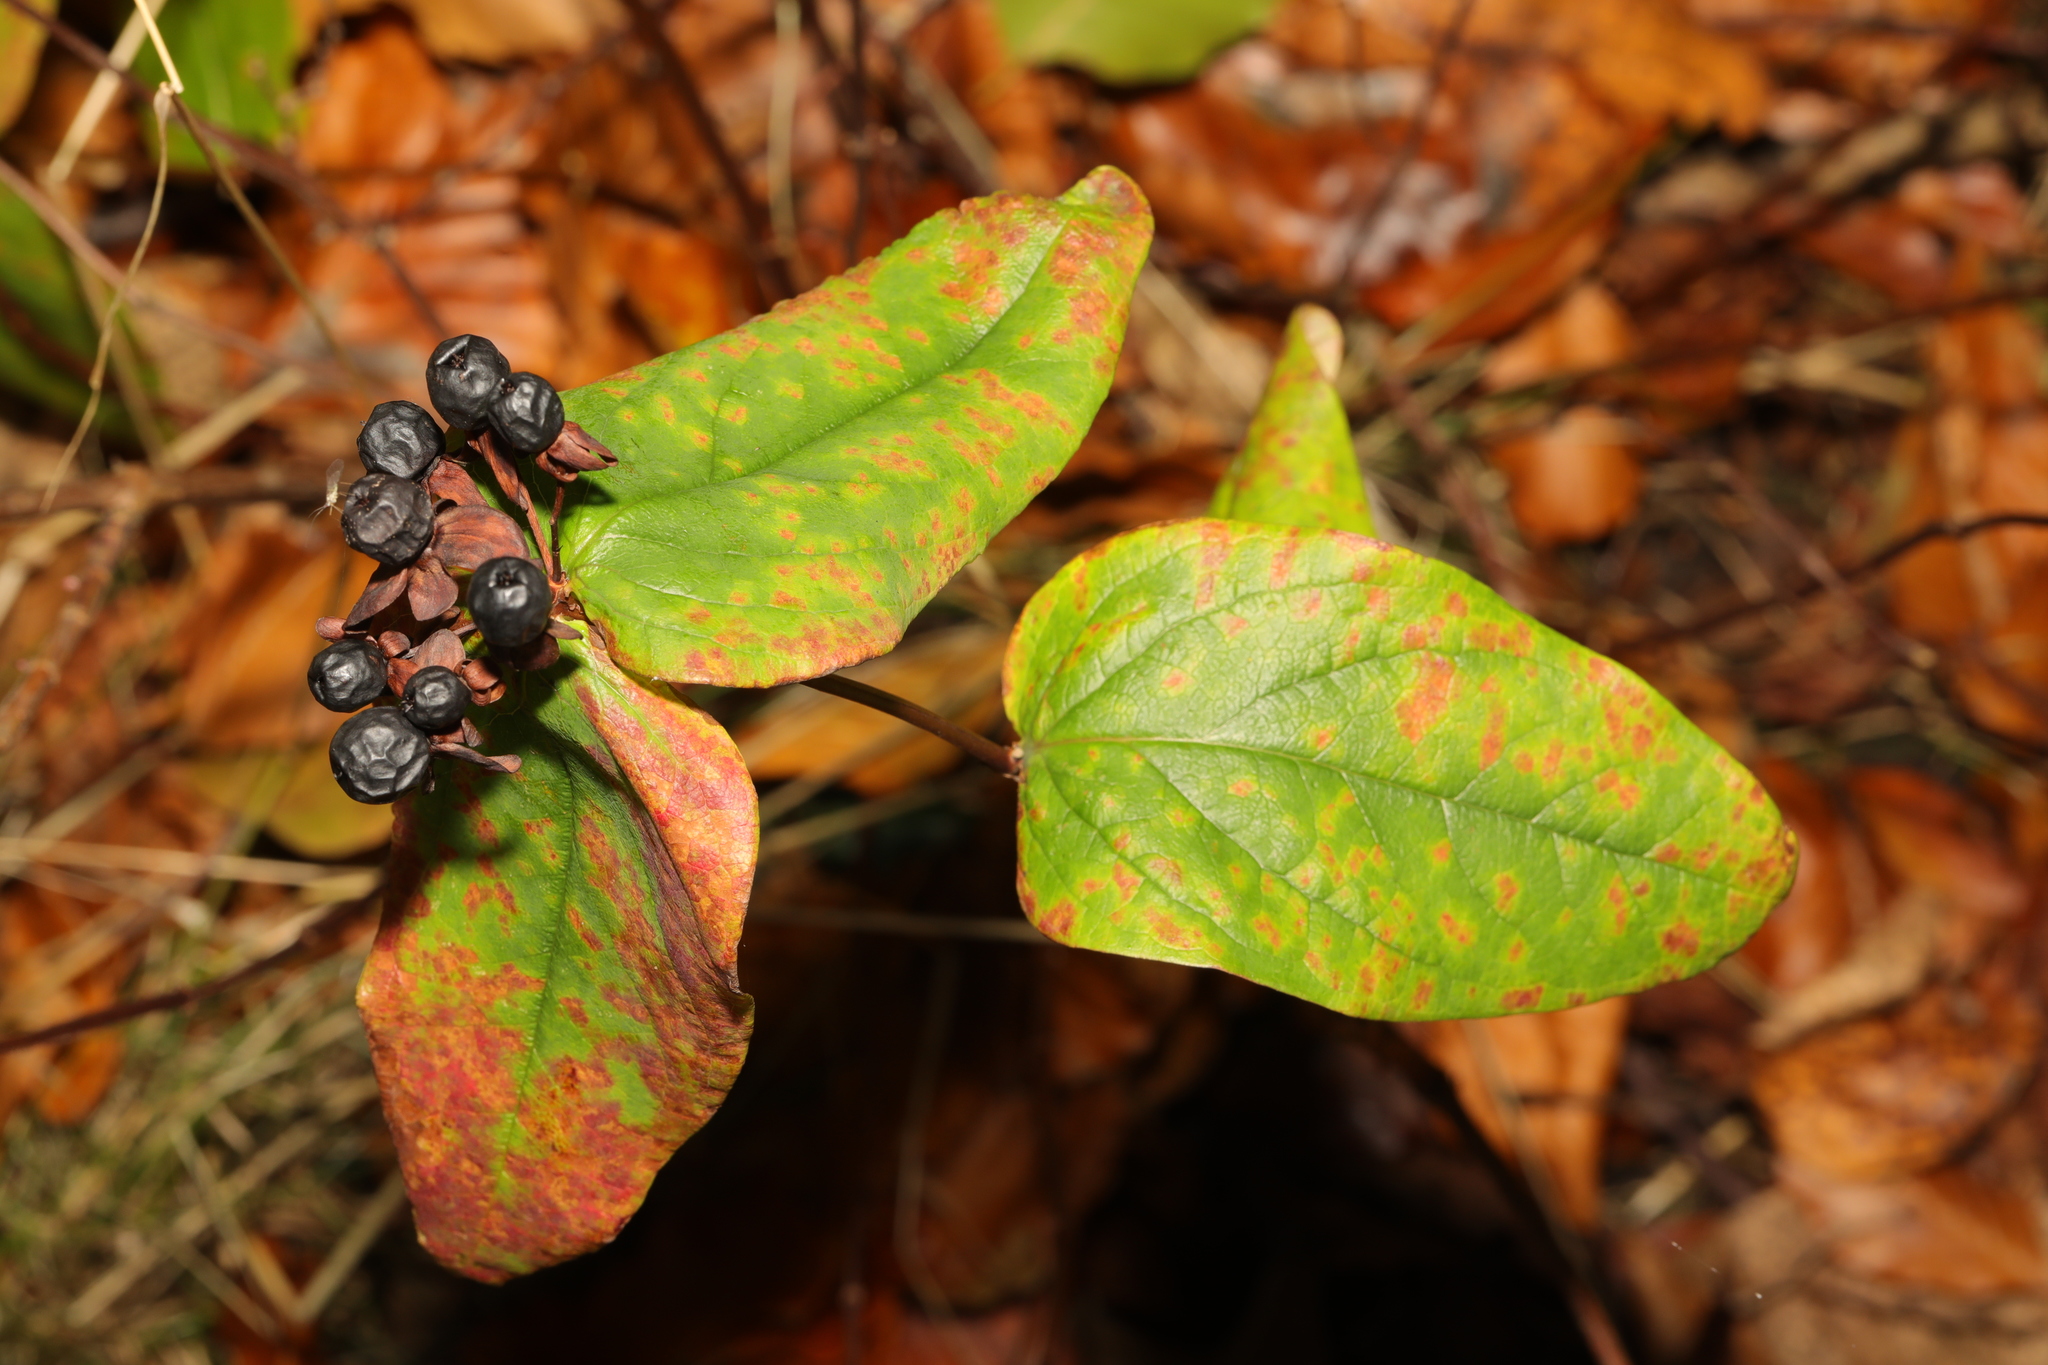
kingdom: Plantae
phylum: Tracheophyta
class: Magnoliopsida
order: Malpighiales
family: Hypericaceae
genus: Hypericum
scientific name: Hypericum androsaemum
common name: Sweet-amber
